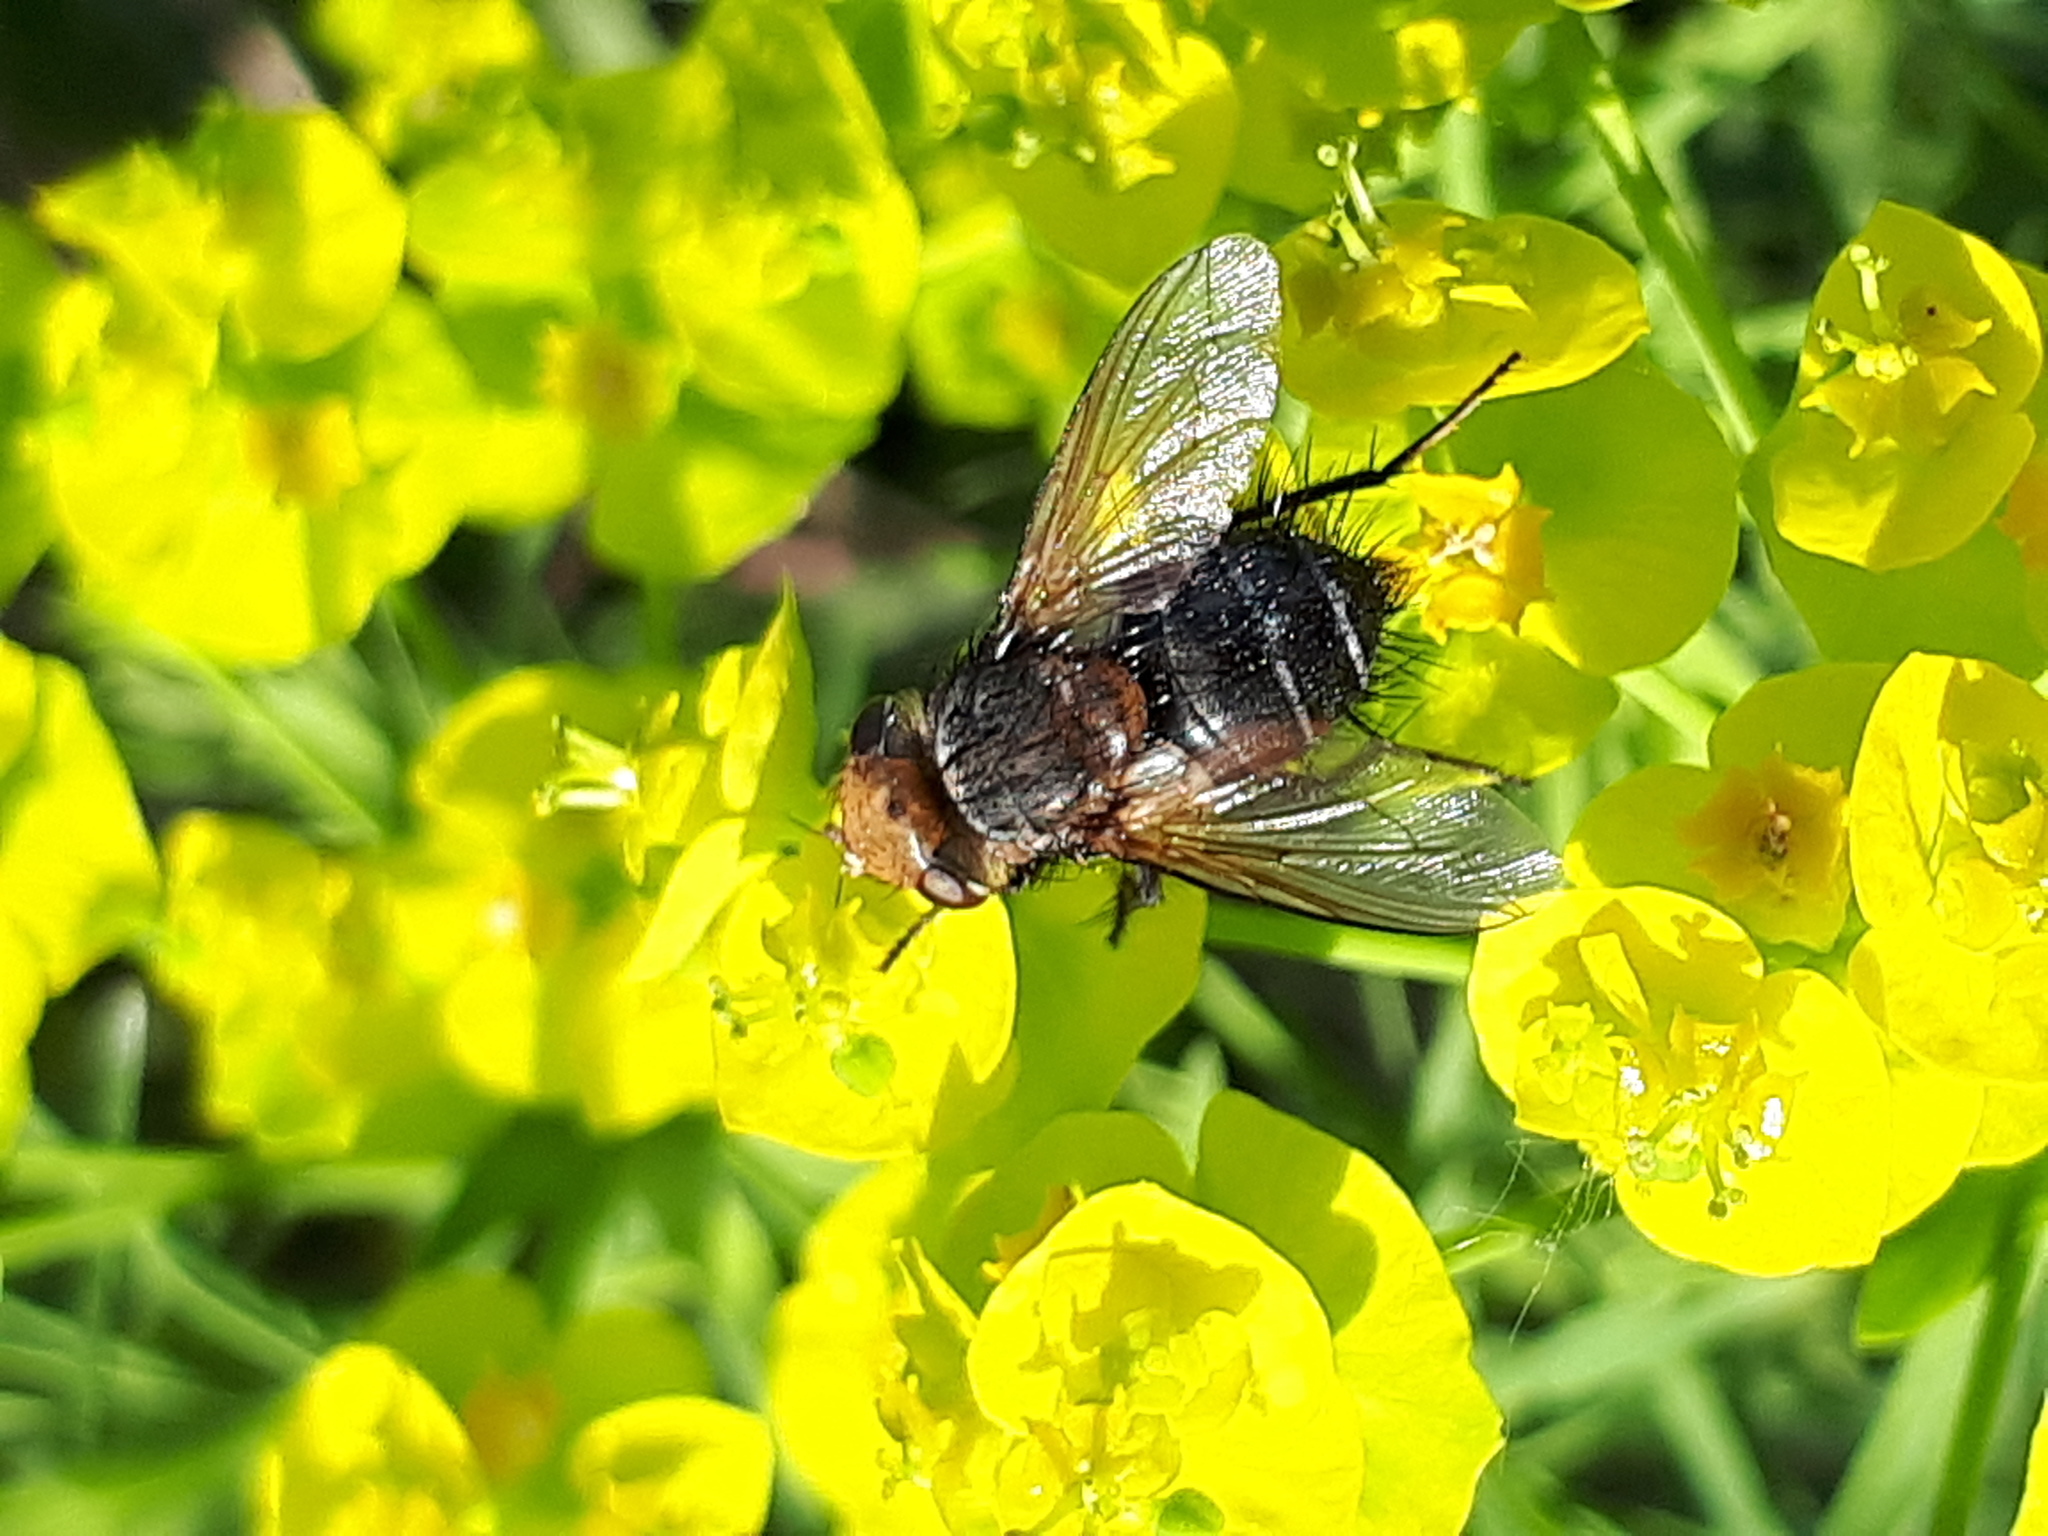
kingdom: Animalia
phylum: Arthropoda
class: Insecta
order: Diptera
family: Tachinidae
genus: Gonia
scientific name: Gonia picea
